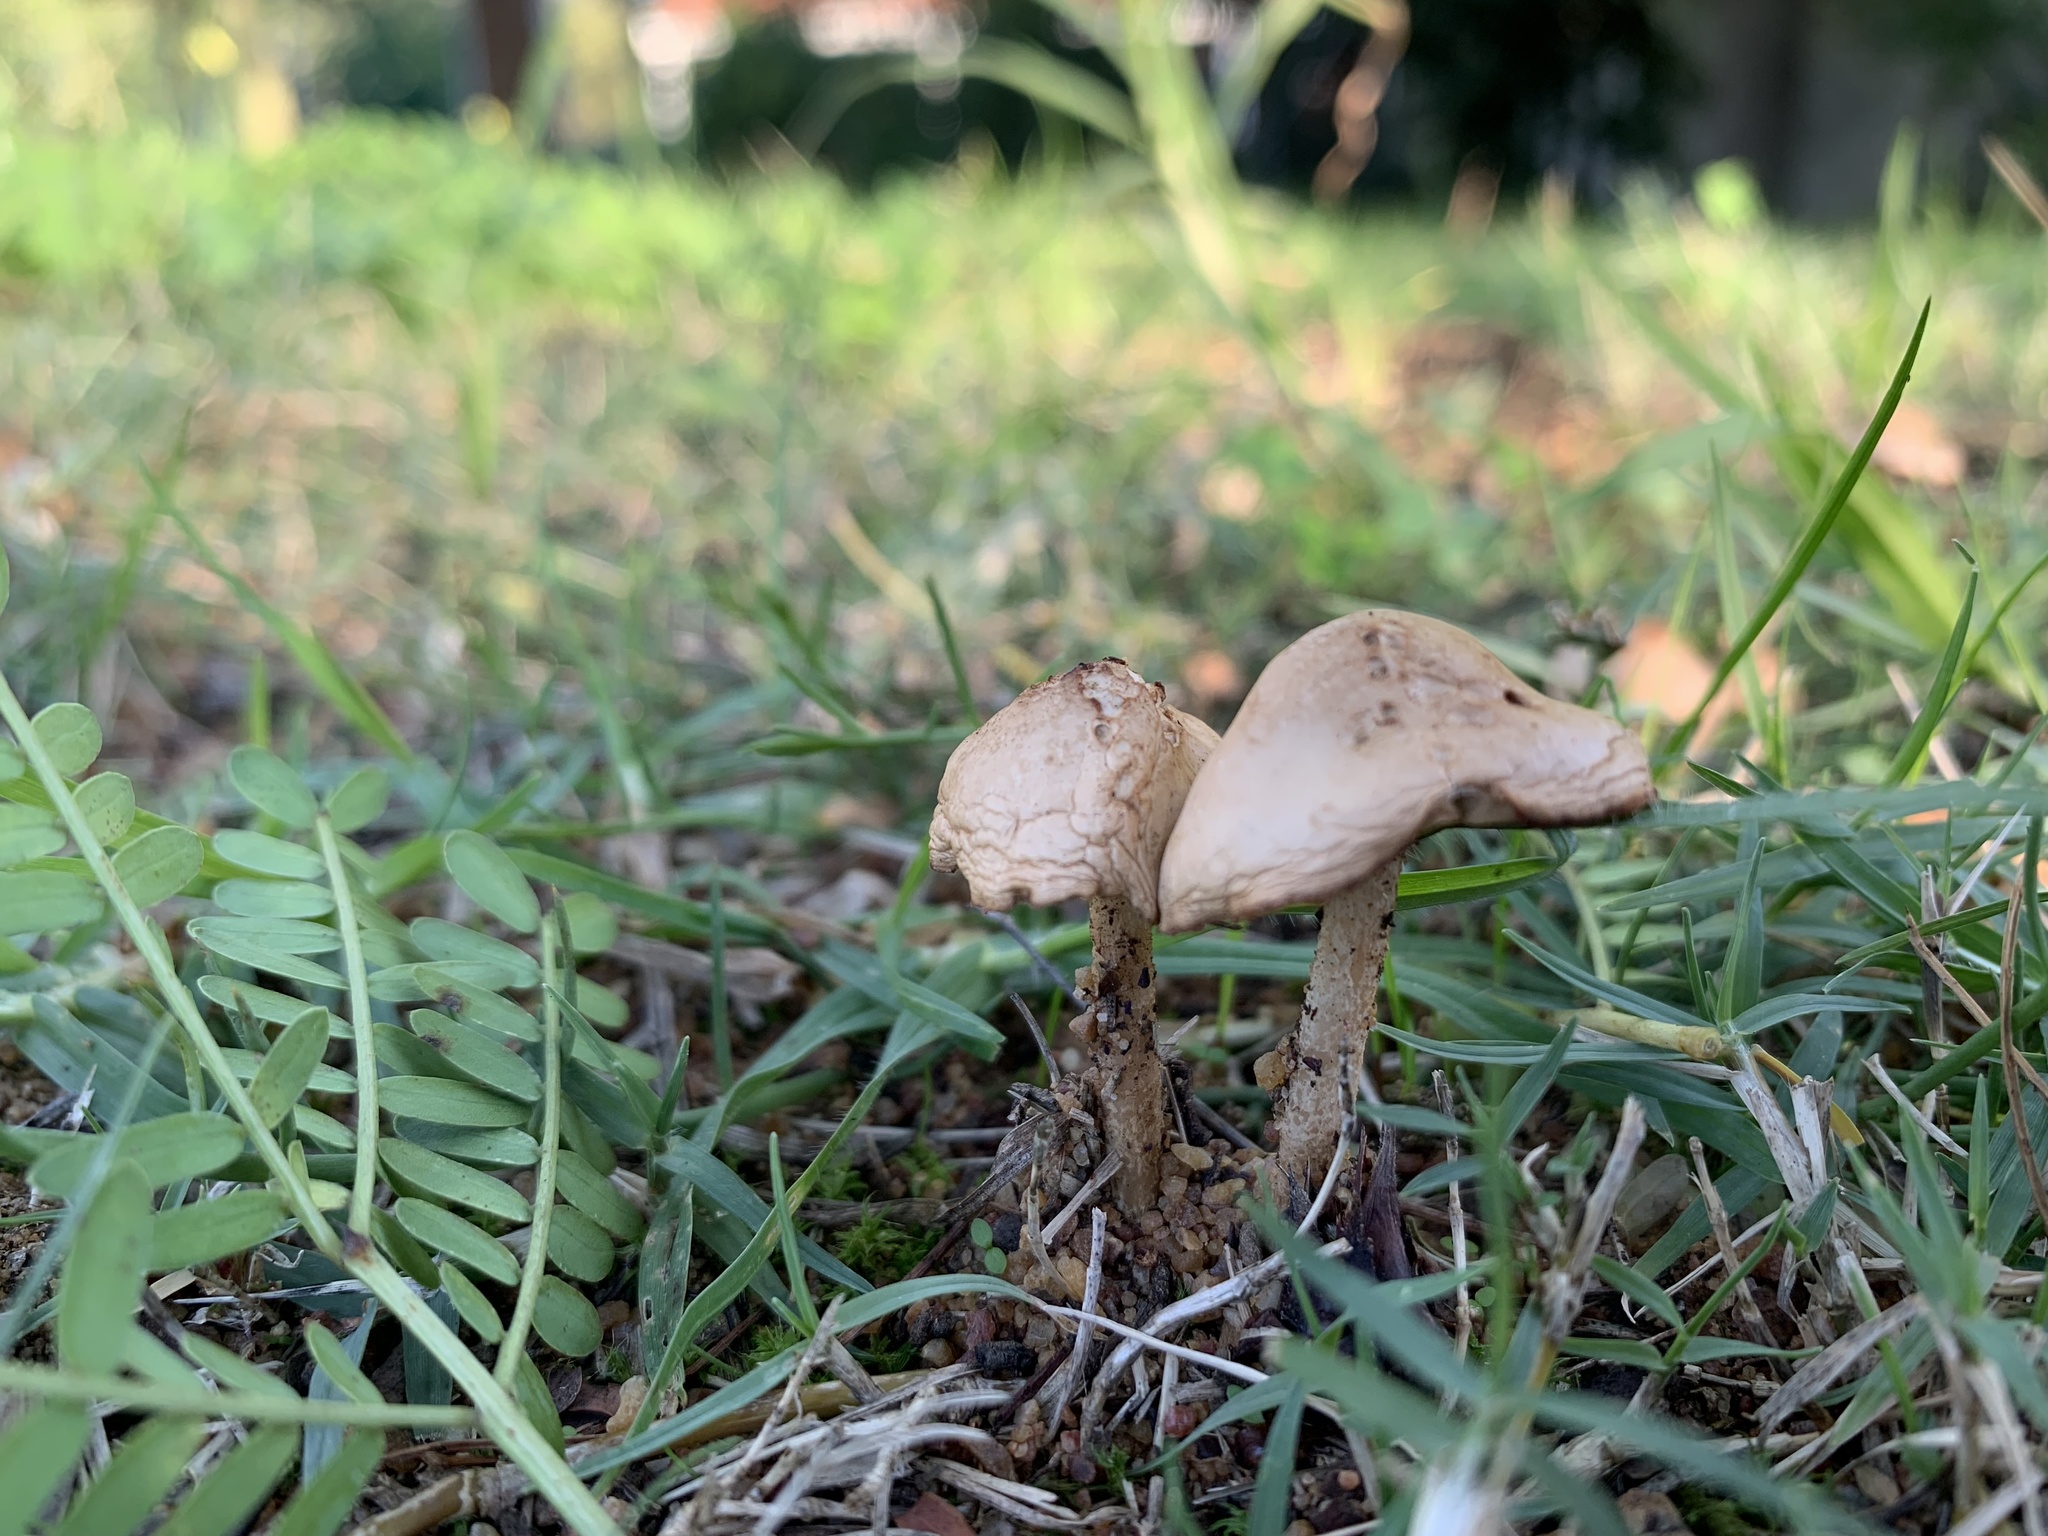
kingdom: Fungi
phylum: Basidiomycota
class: Agaricomycetes
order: Agaricales
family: Marasmiaceae
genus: Marasmius
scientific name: Marasmius oreades
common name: Fairy ring champignon
